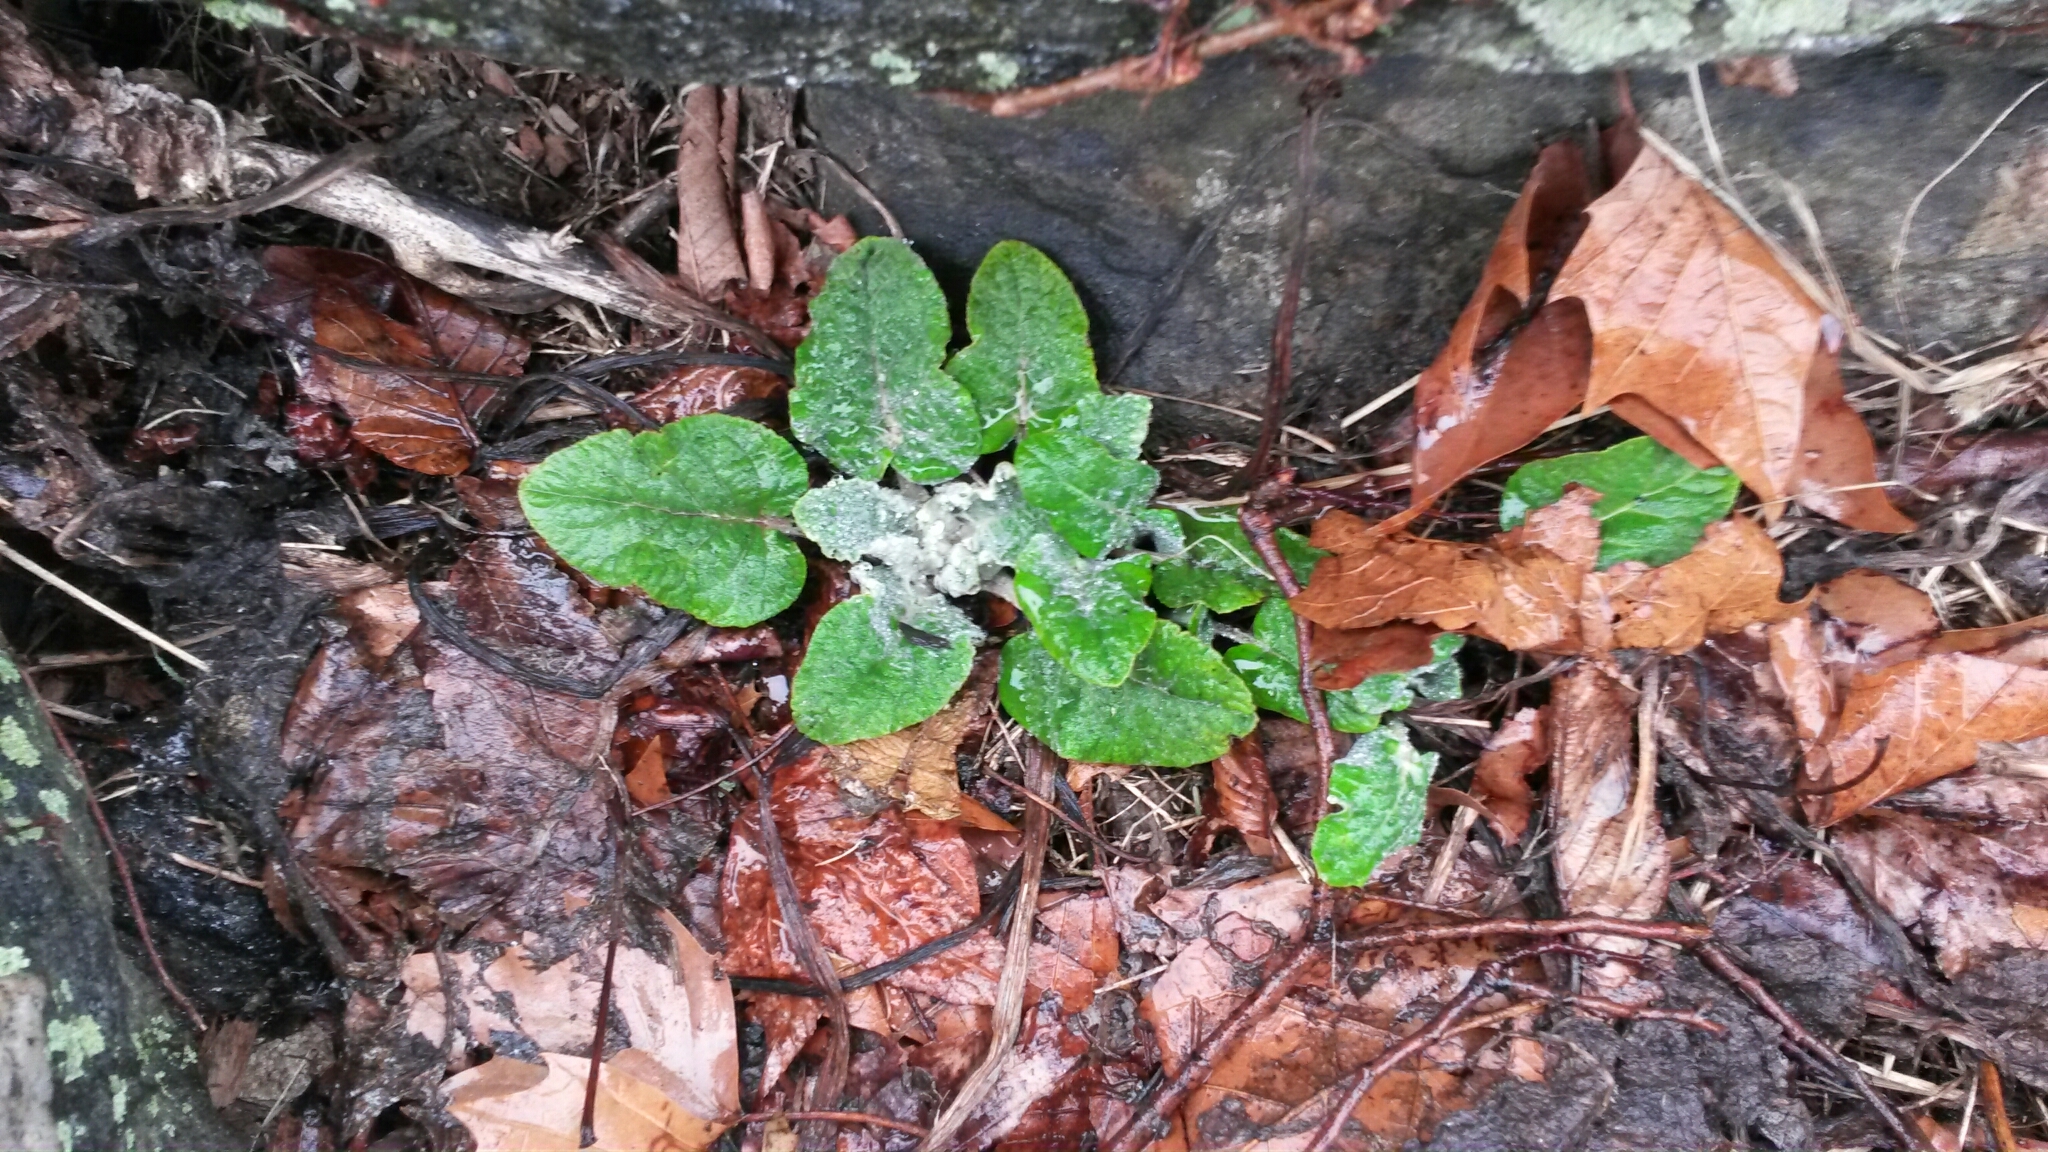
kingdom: Plantae
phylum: Tracheophyta
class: Magnoliopsida
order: Asterales
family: Asteraceae
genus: Arctium
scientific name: Arctium
